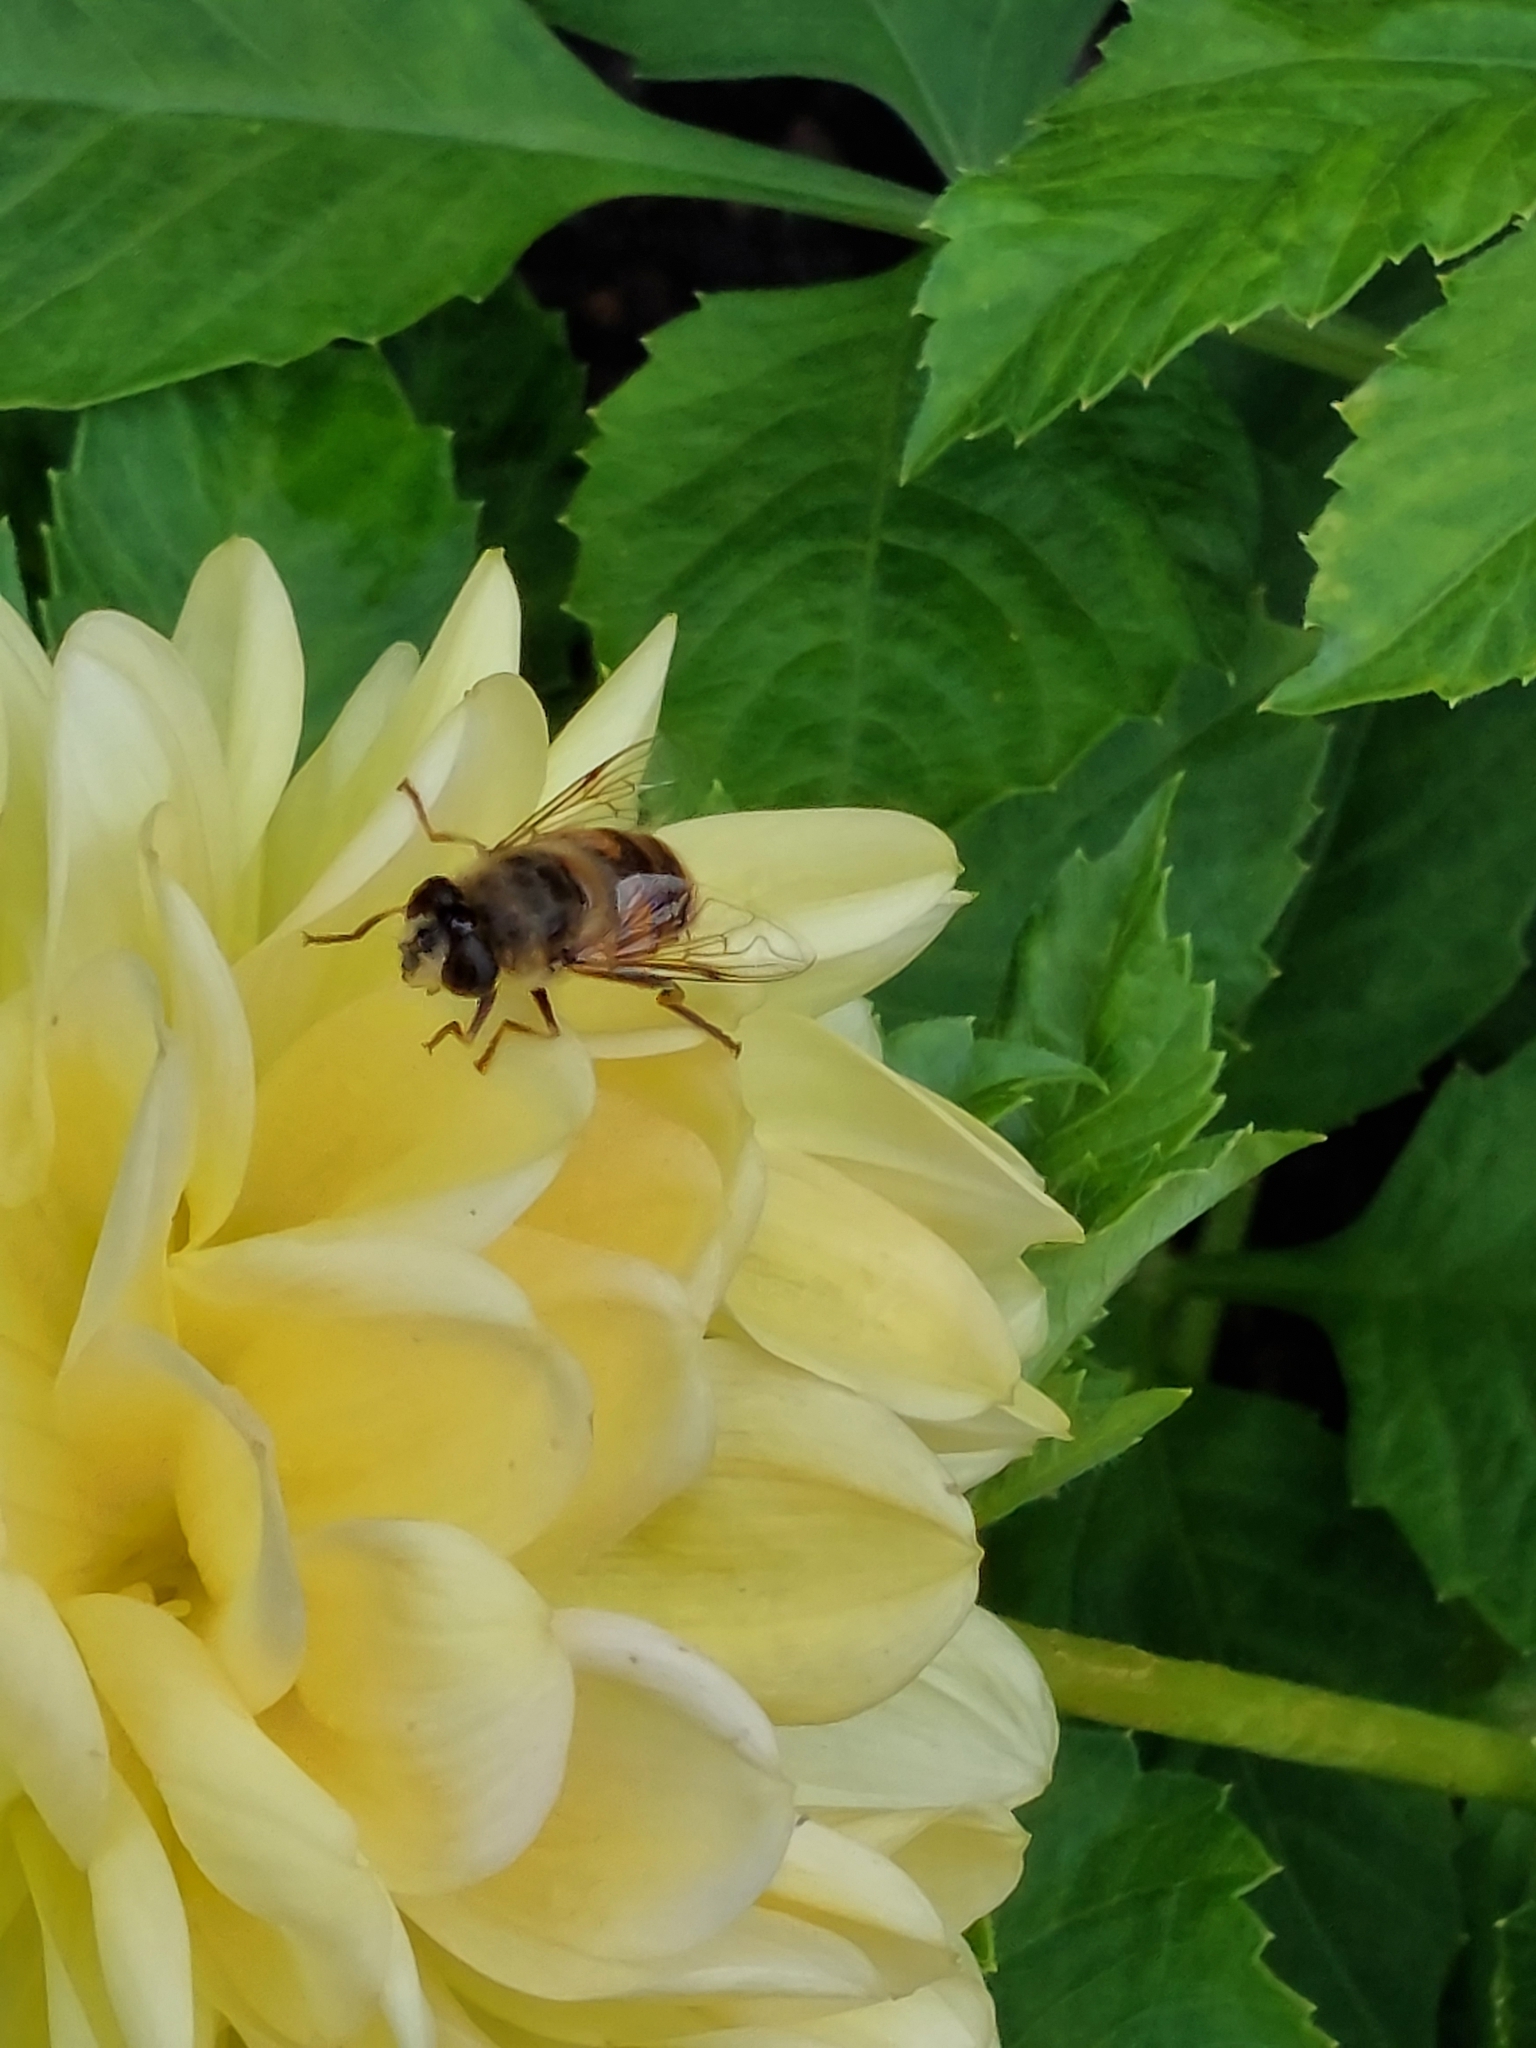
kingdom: Animalia
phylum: Arthropoda
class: Insecta
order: Diptera
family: Syrphidae
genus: Eristalis
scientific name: Eristalis tenax
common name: Drone fly
